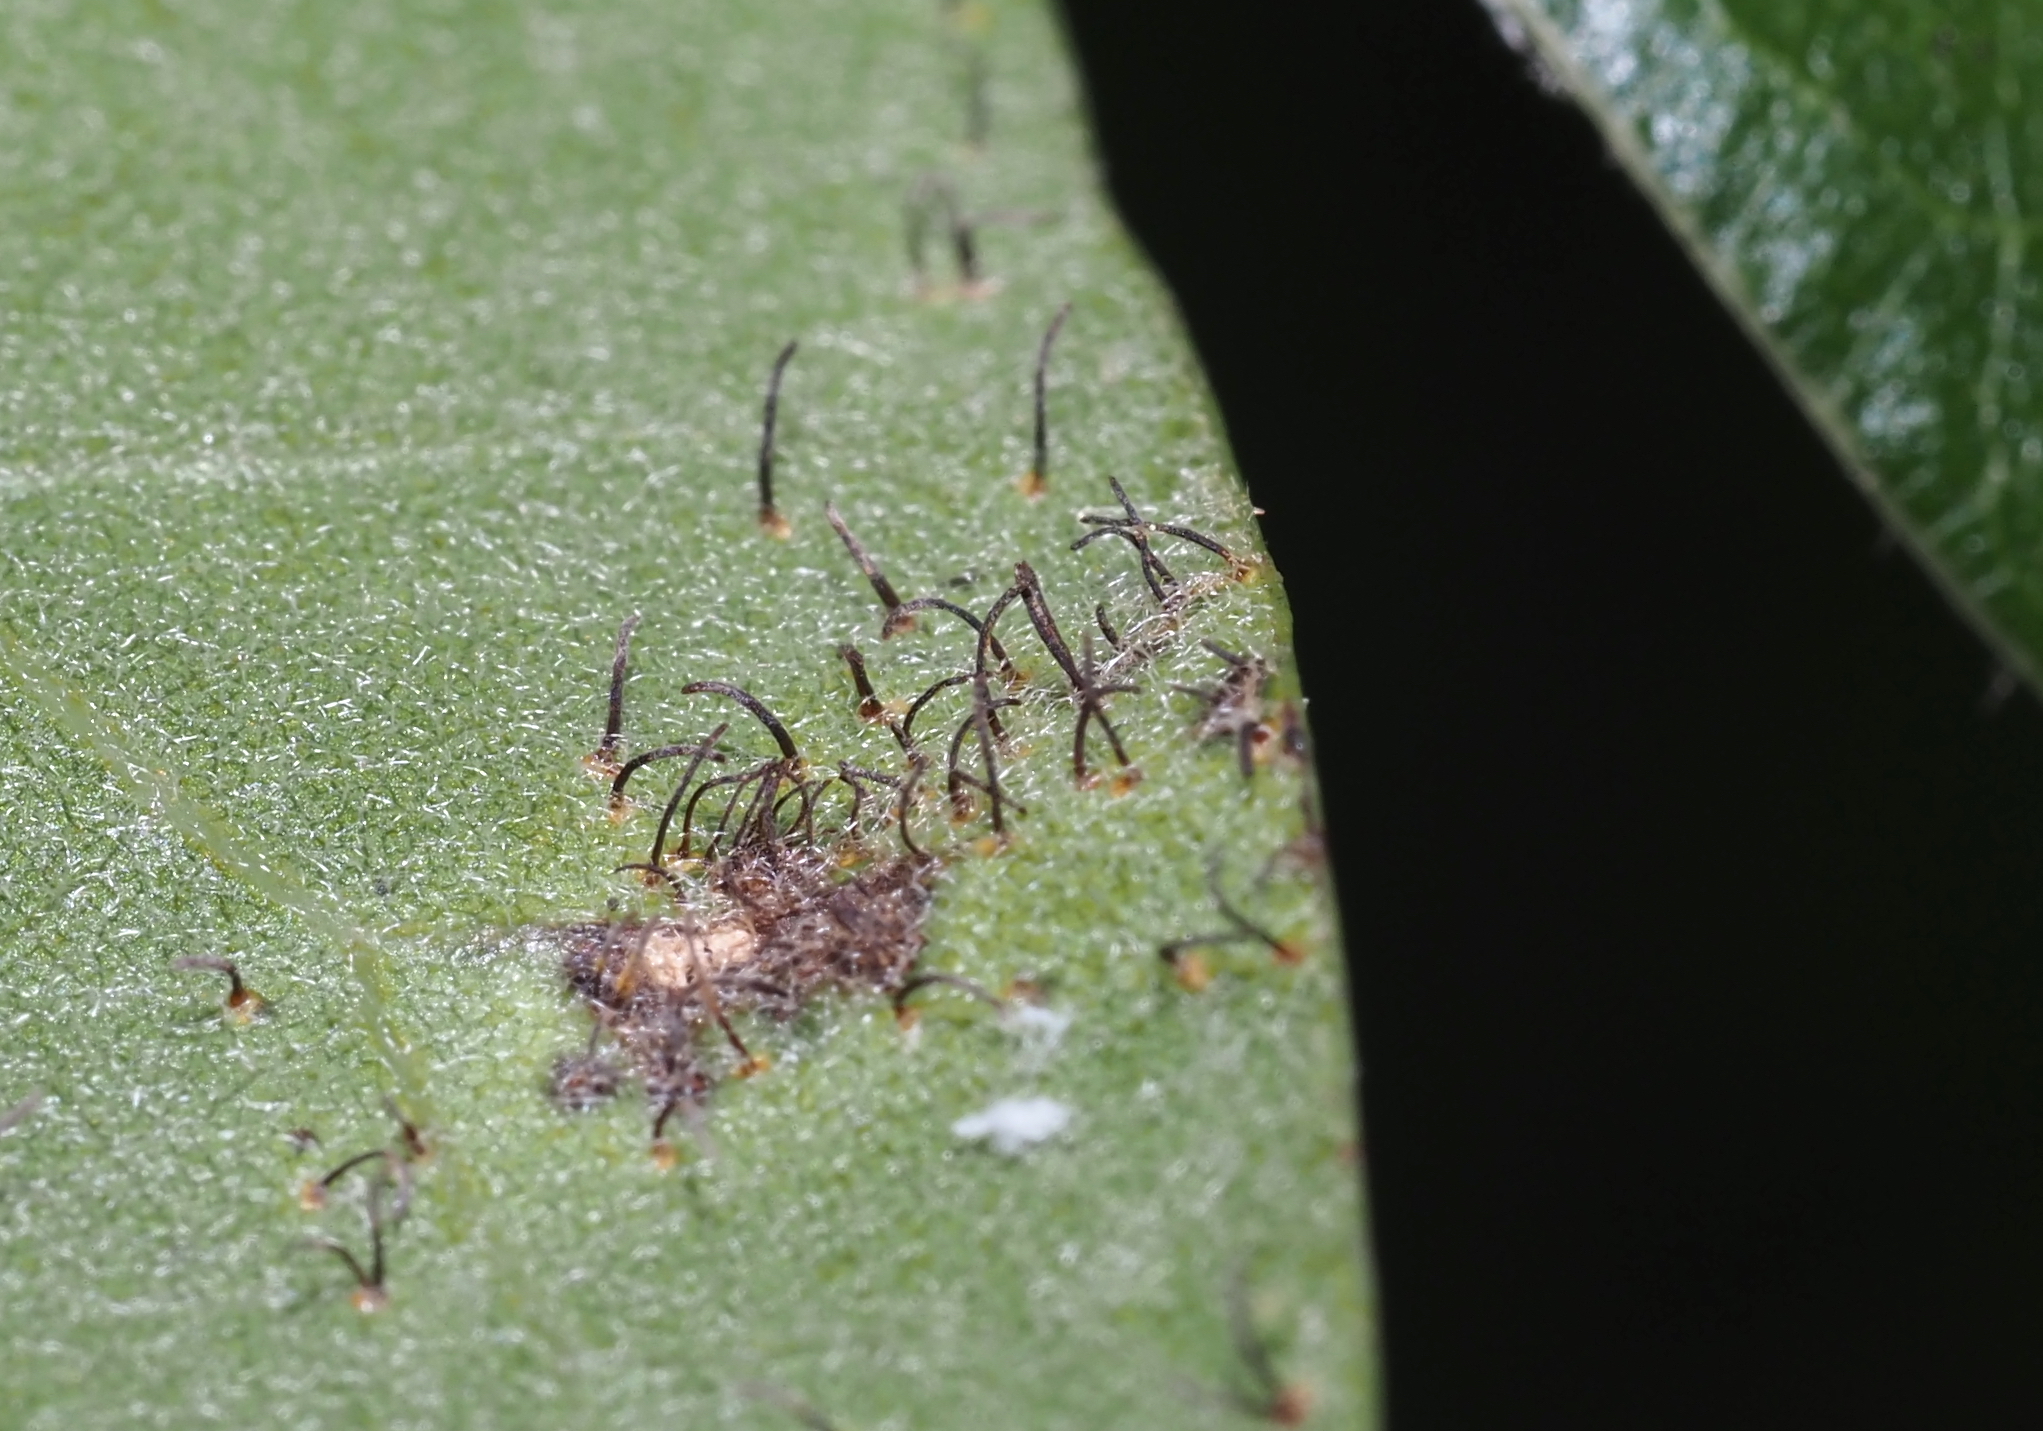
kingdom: Fungi
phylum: Basidiomycota
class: Pucciniomycetes
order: Pucciniales
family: Cronartiaceae
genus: Cronartium
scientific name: Cronartium quercuum
